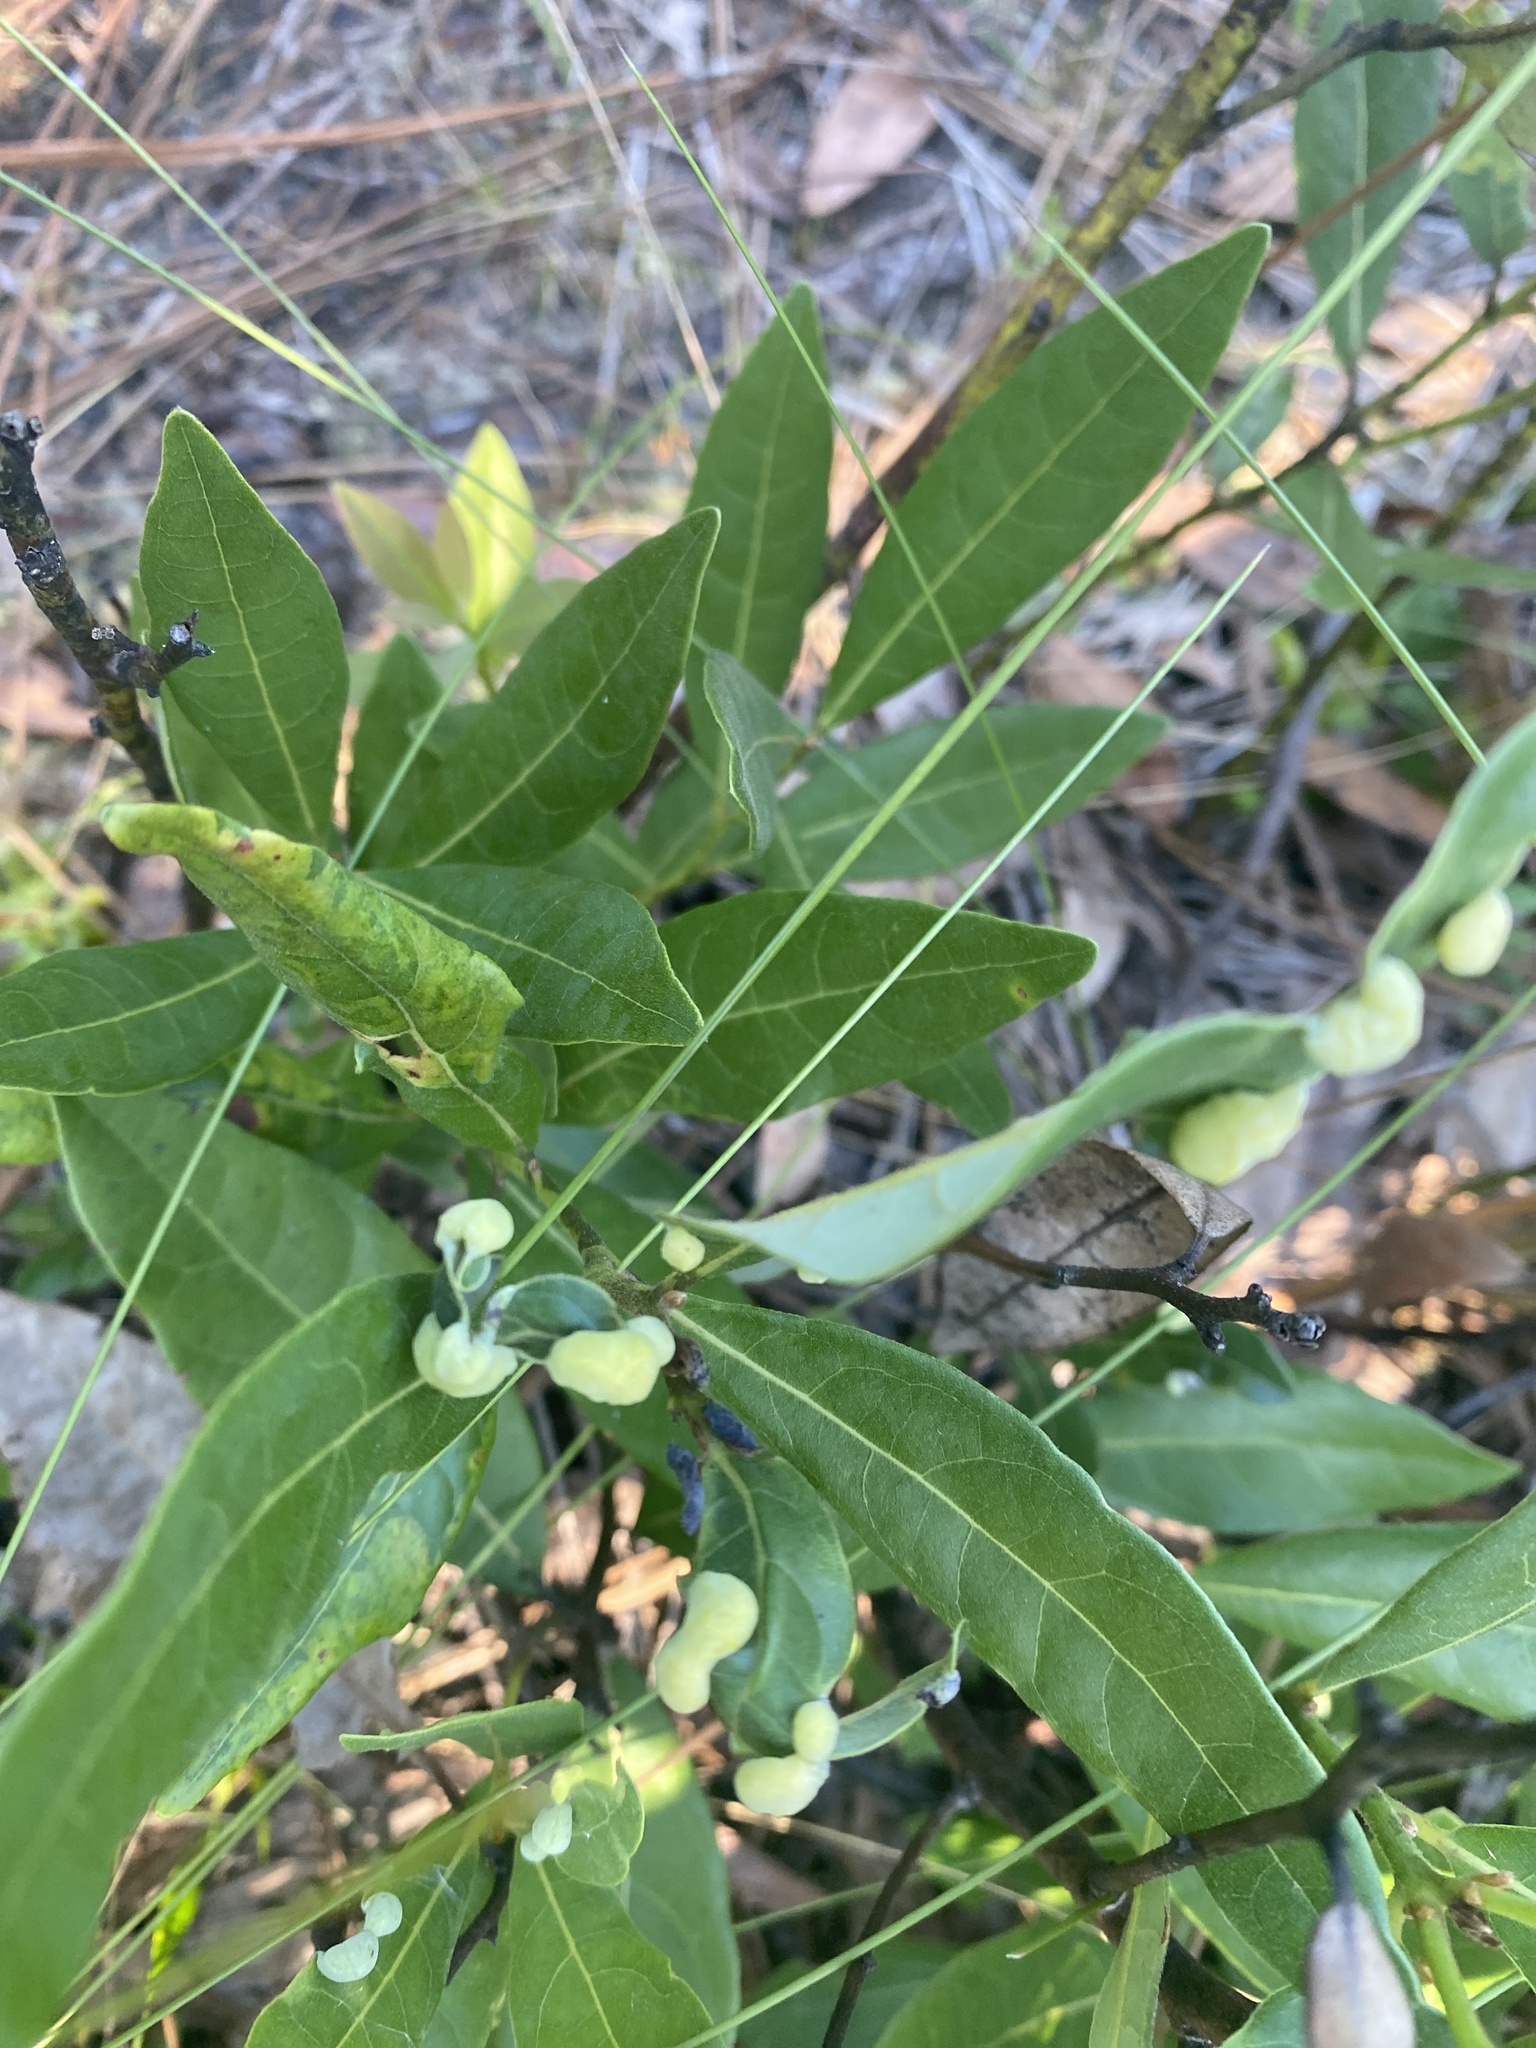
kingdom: Animalia
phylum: Arthropoda
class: Insecta
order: Hemiptera
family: Triozidae
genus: Trioza
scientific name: Trioza magnoliae
